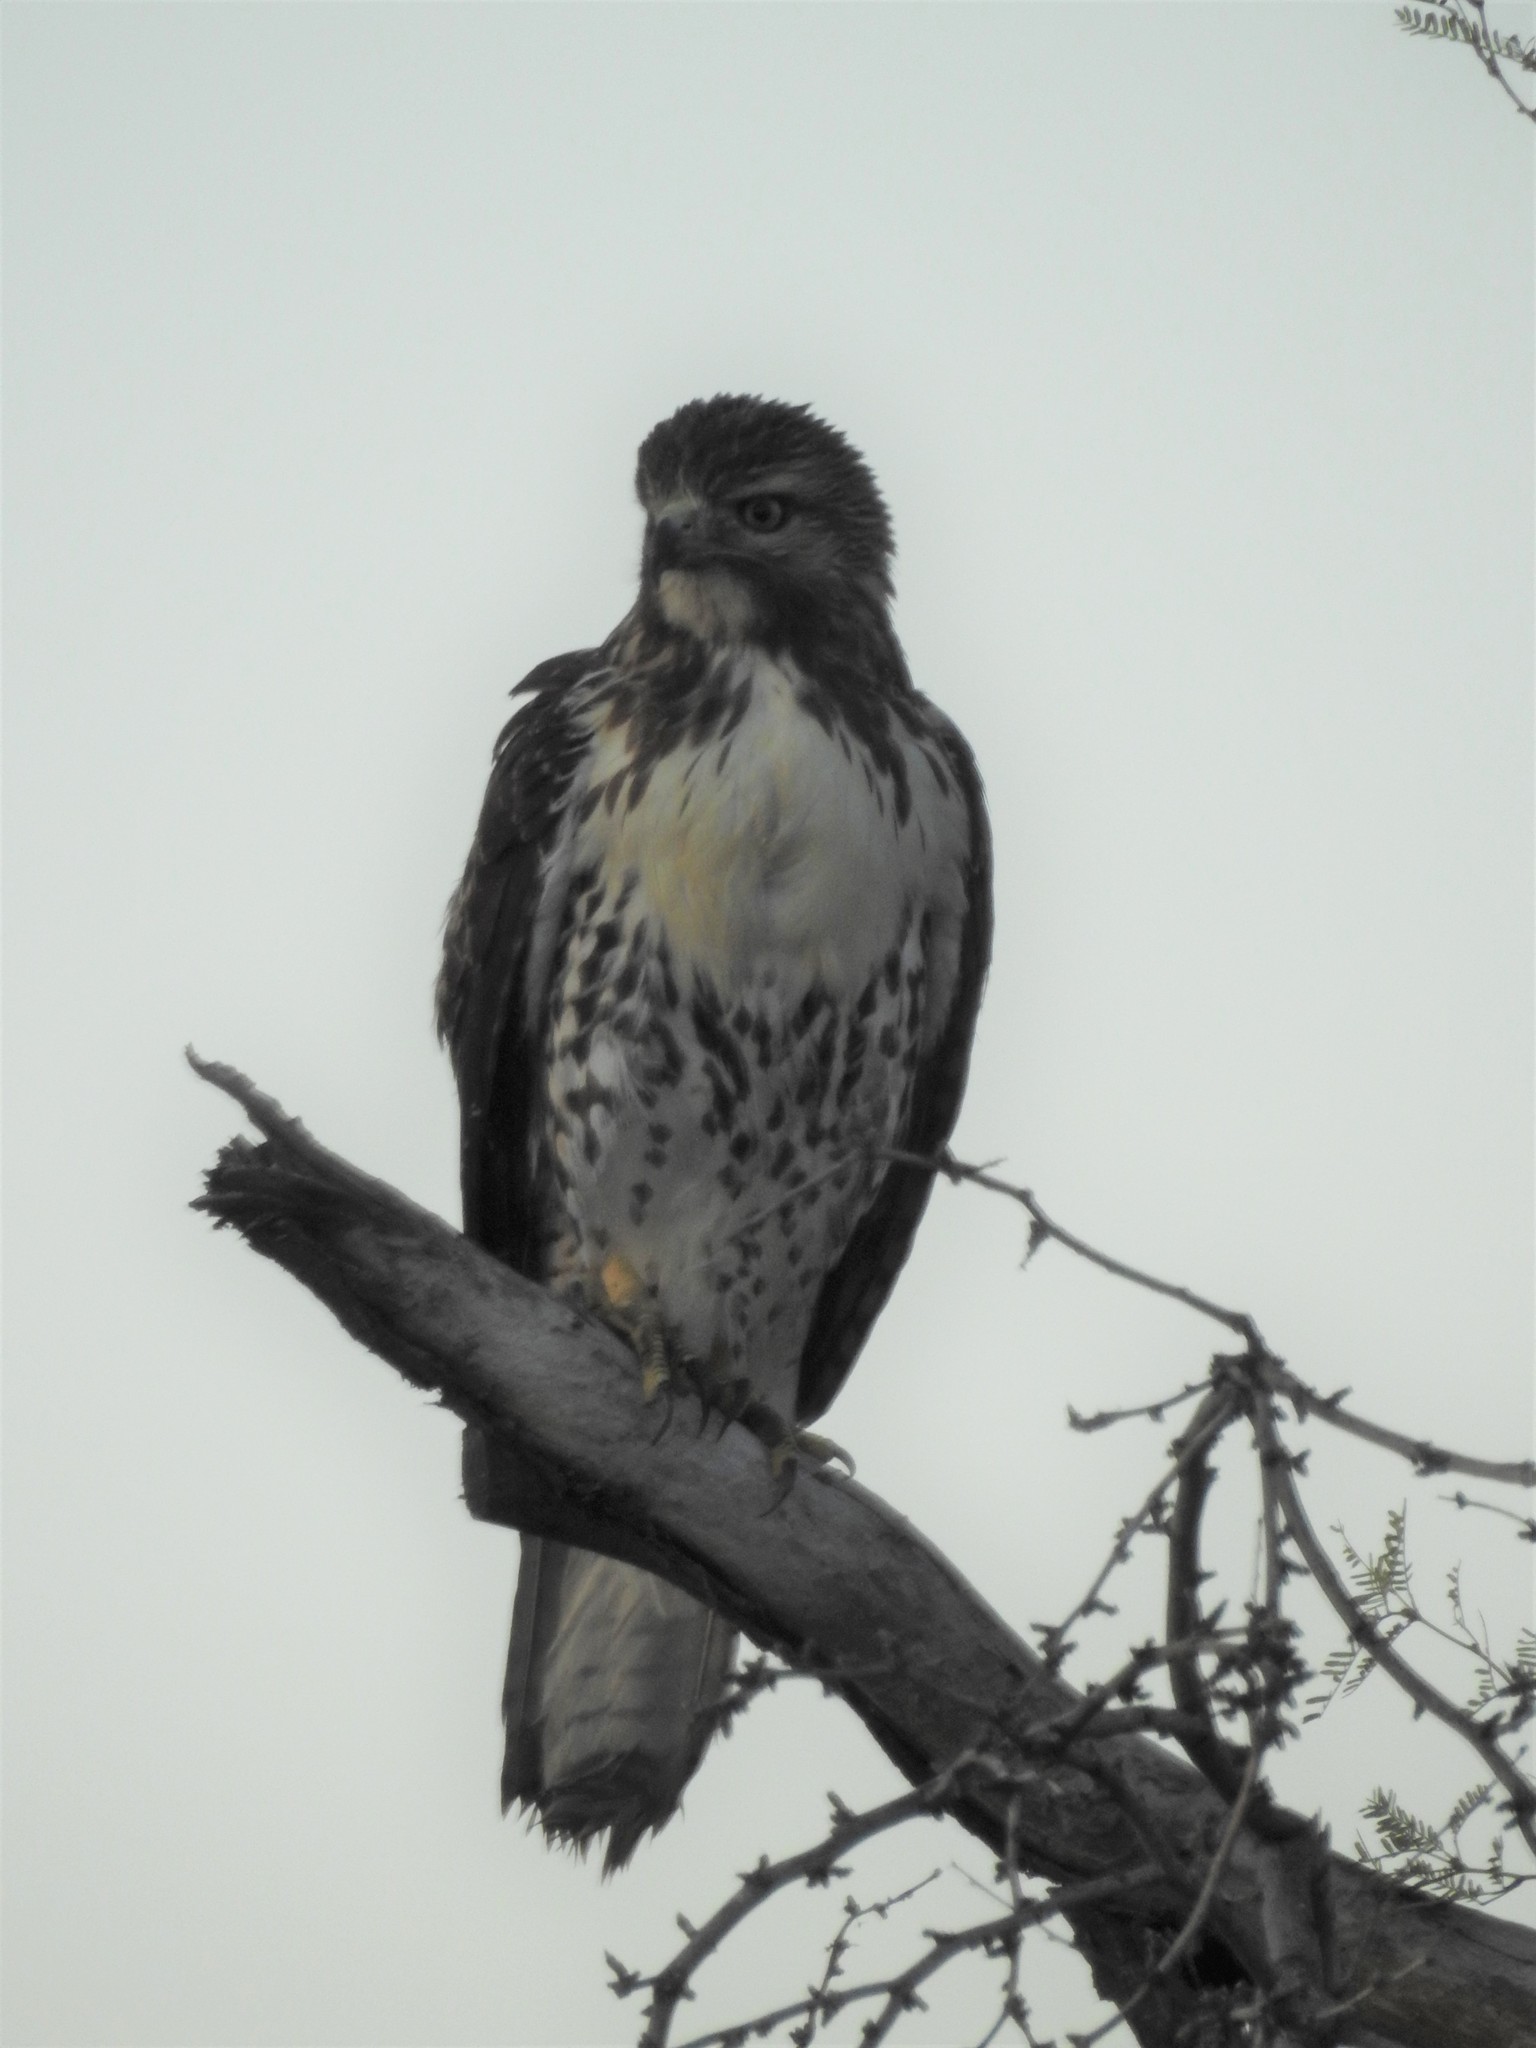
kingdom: Animalia
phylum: Chordata
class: Aves
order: Accipitriformes
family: Accipitridae
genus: Buteo
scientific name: Buteo jamaicensis
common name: Red-tailed hawk
